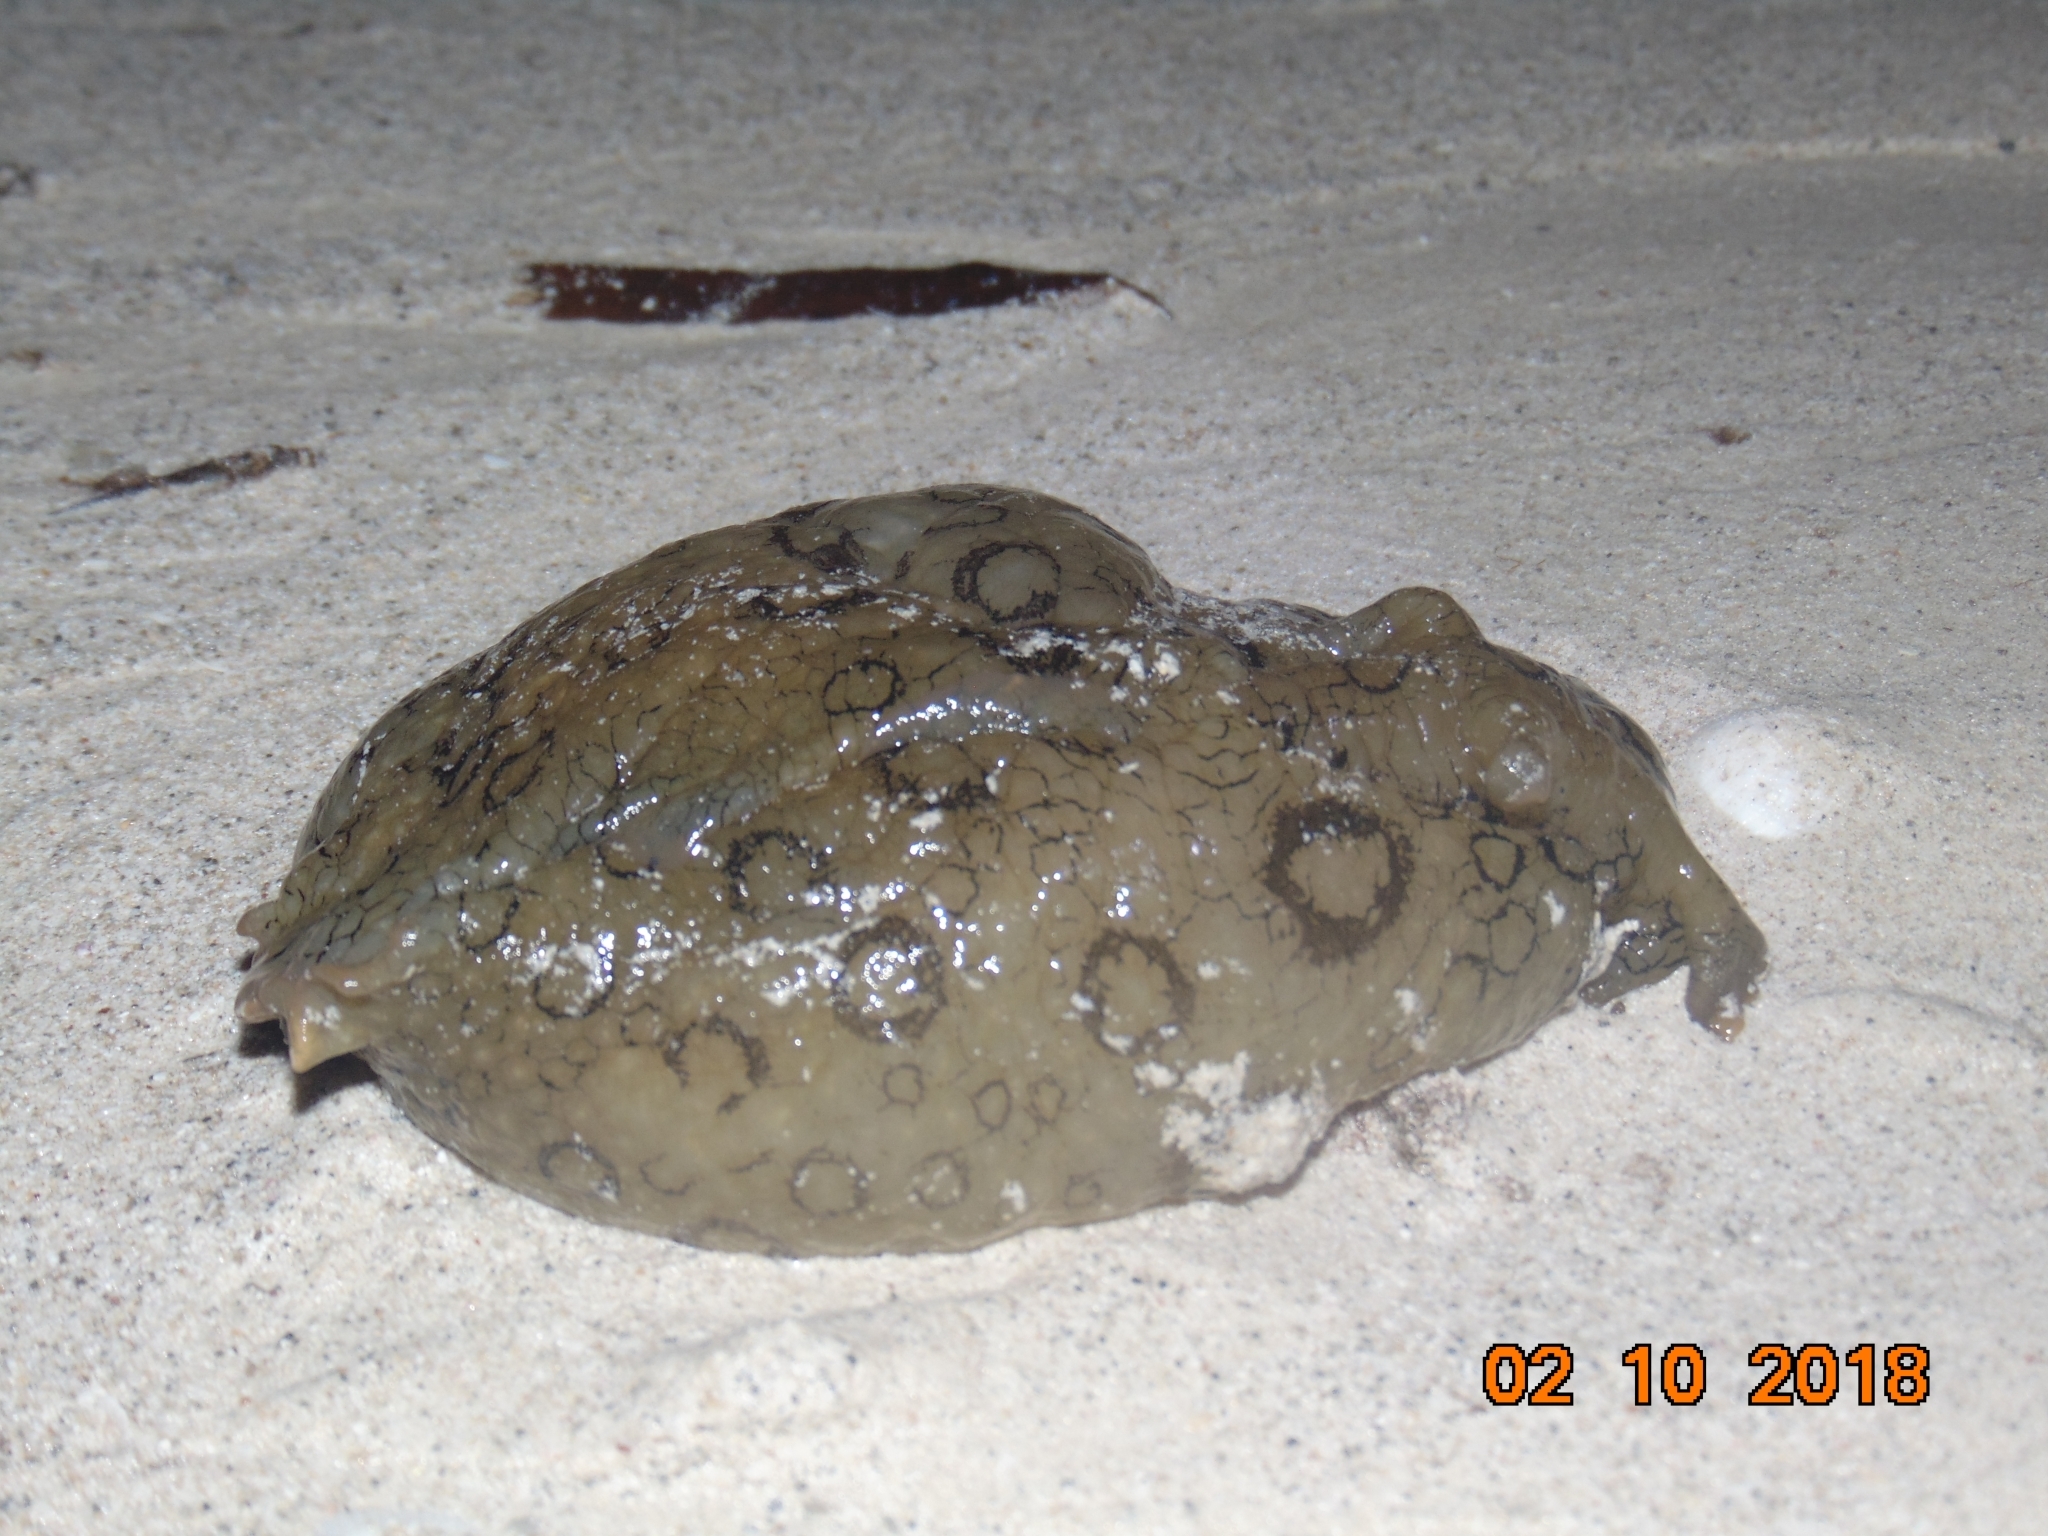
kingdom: Animalia
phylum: Mollusca
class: Gastropoda
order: Aplysiida
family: Aplysiidae
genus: Aplysia
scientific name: Aplysia dactylomela
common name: Large-spotted sea hare
